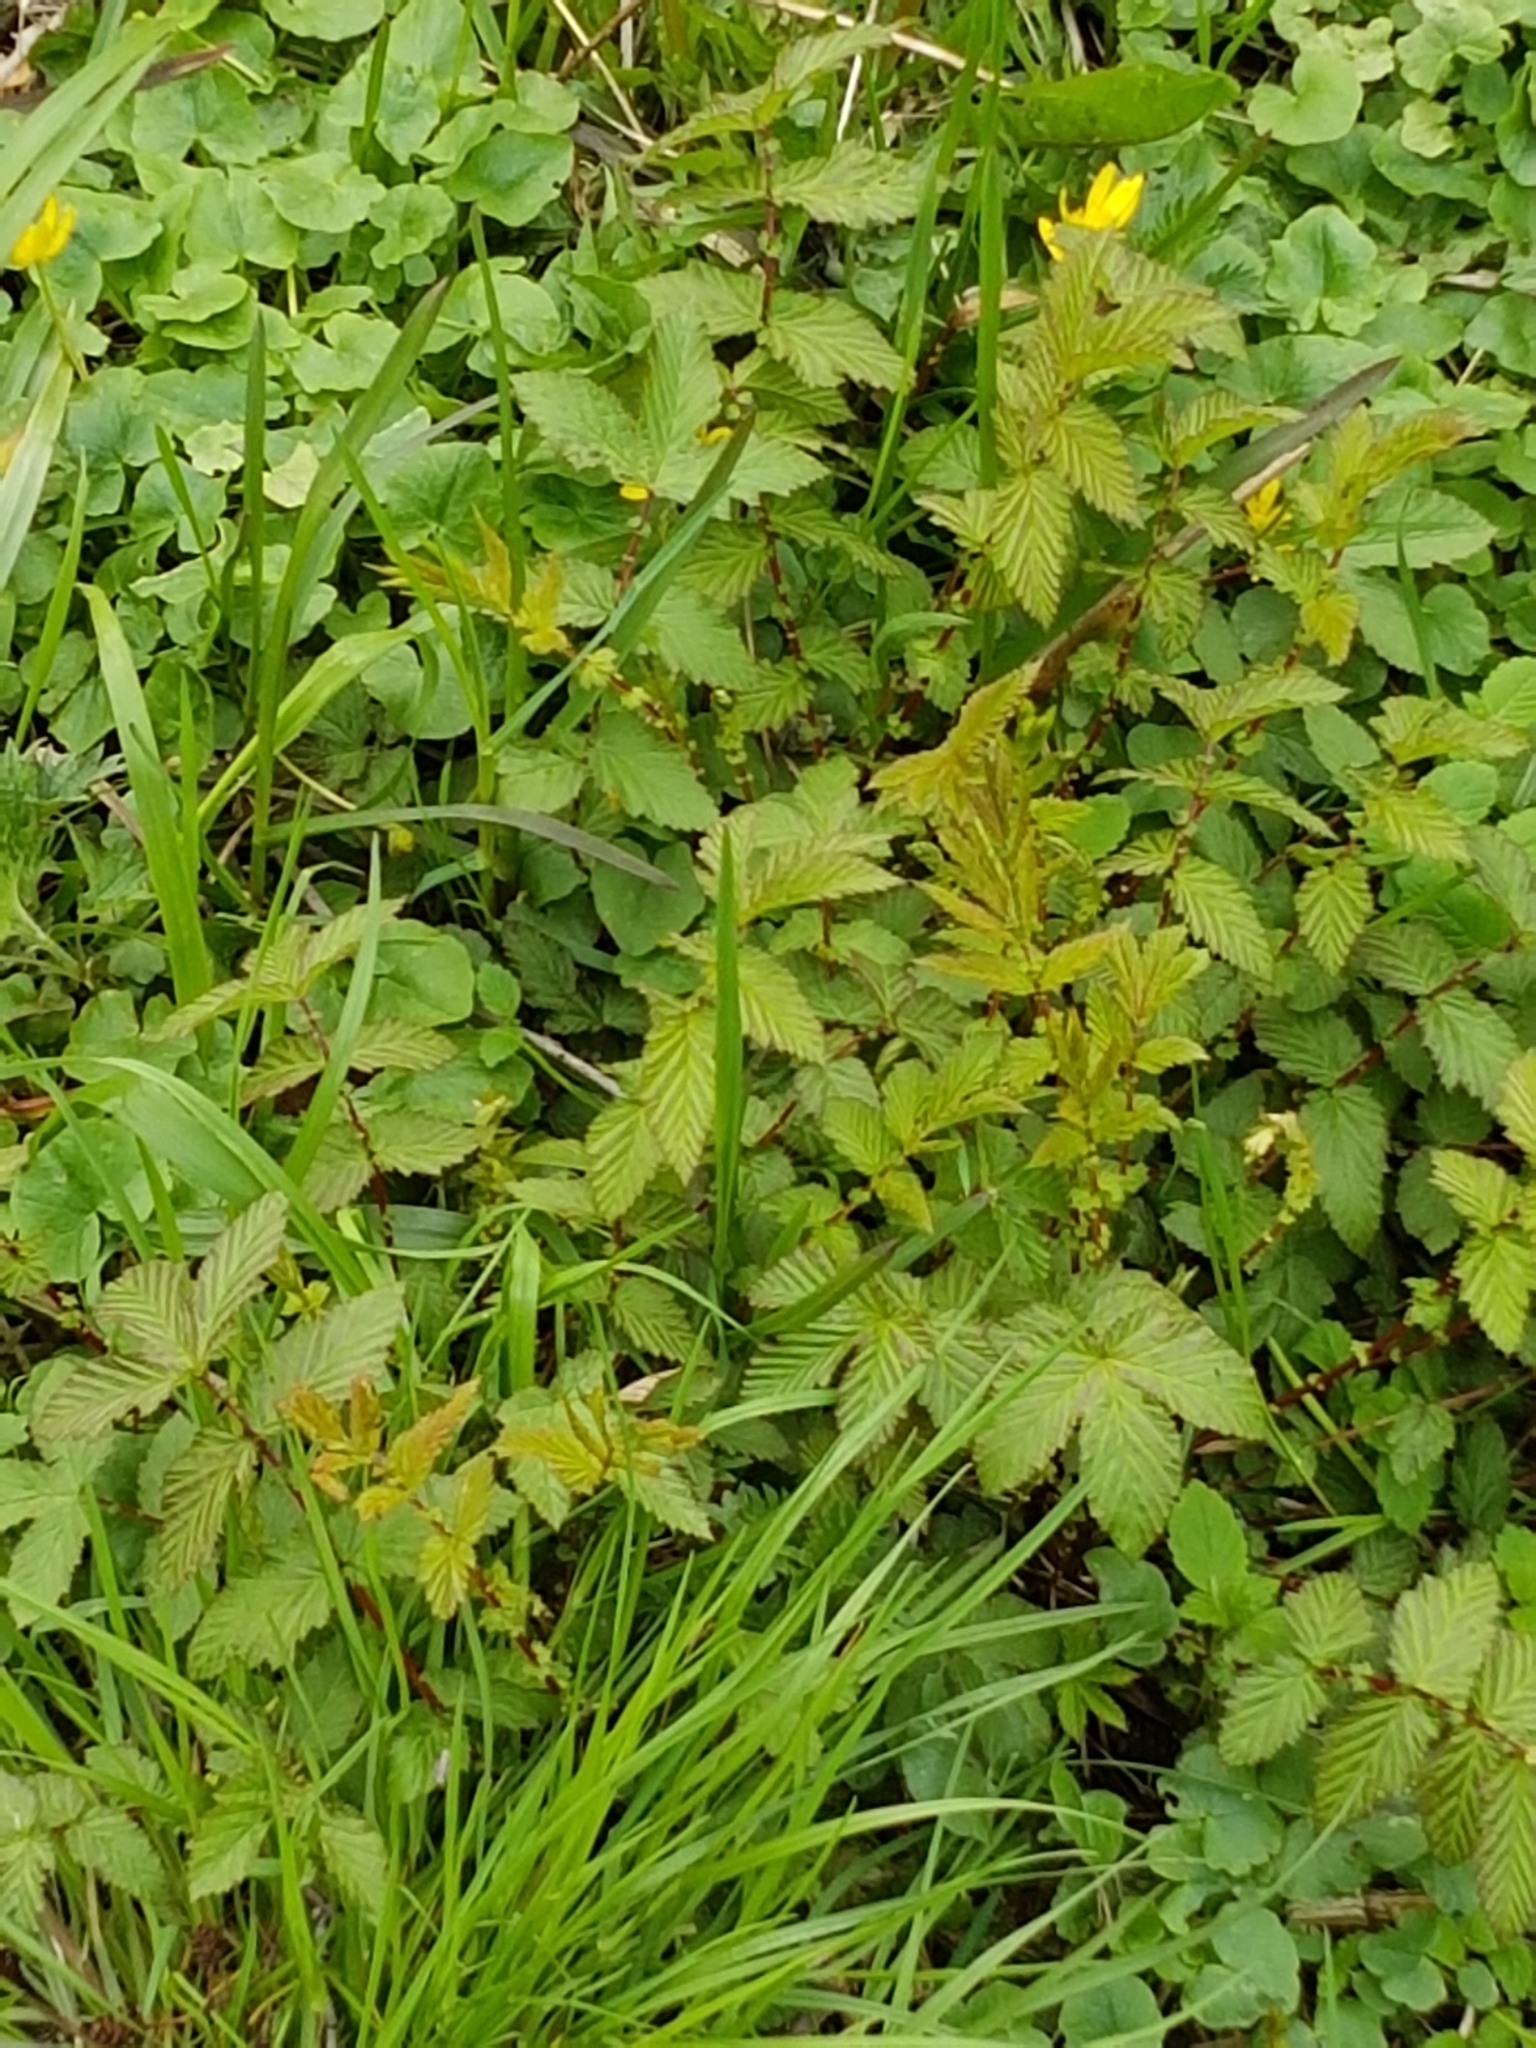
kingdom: Plantae
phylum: Tracheophyta
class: Magnoliopsida
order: Rosales
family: Rosaceae
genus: Filipendula
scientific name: Filipendula ulmaria
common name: Meadowsweet
